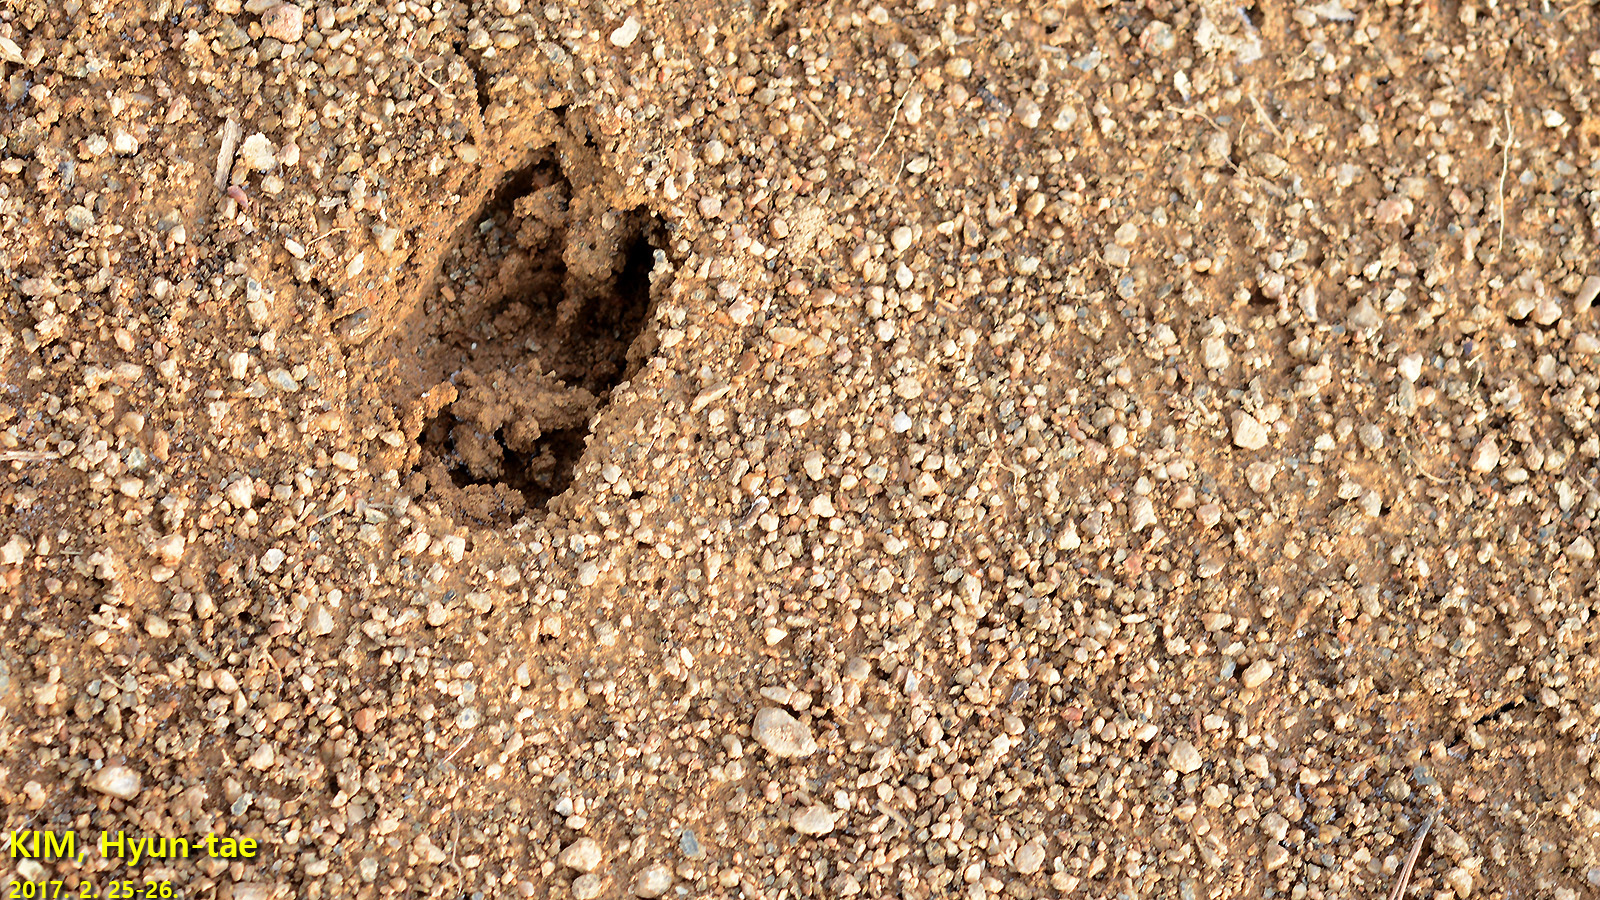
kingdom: Animalia
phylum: Chordata
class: Mammalia
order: Artiodactyla
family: Cervidae
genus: Hydropotes
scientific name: Hydropotes inermis
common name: Chinese water deer
